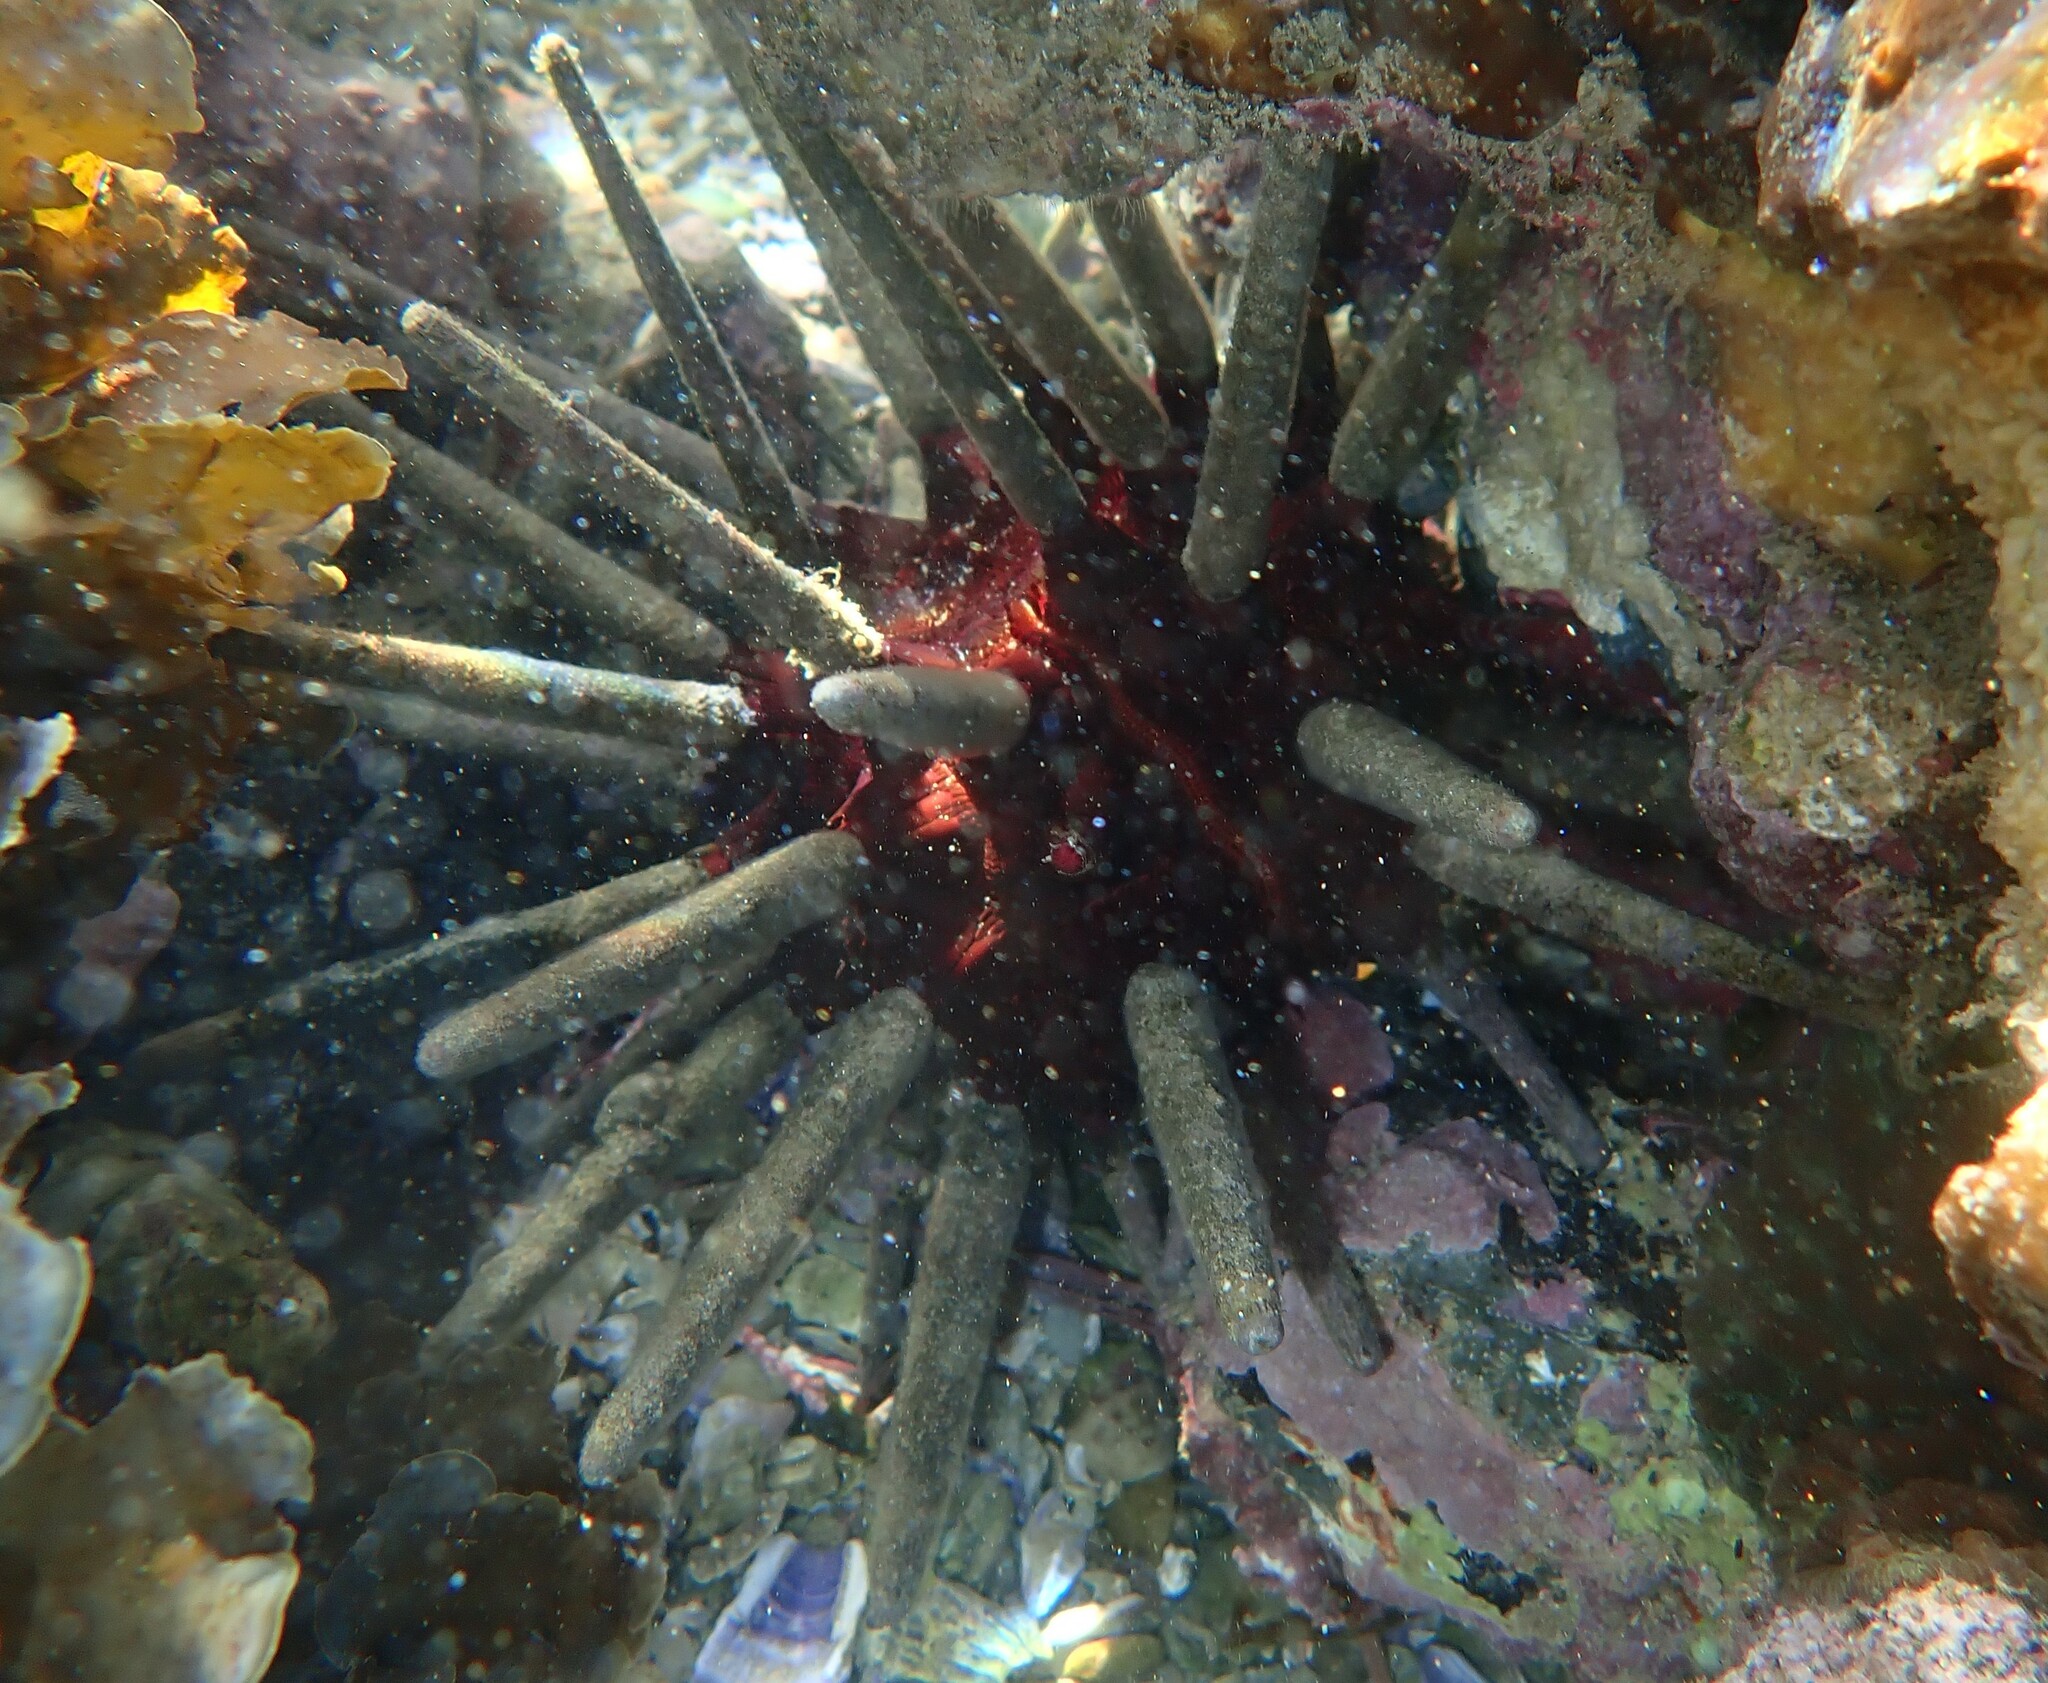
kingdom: Animalia
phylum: Echinodermata
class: Echinoidea
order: Cidaroida
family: Cidaridae
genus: Phyllacanthus
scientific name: Phyllacanthus parvispinus
